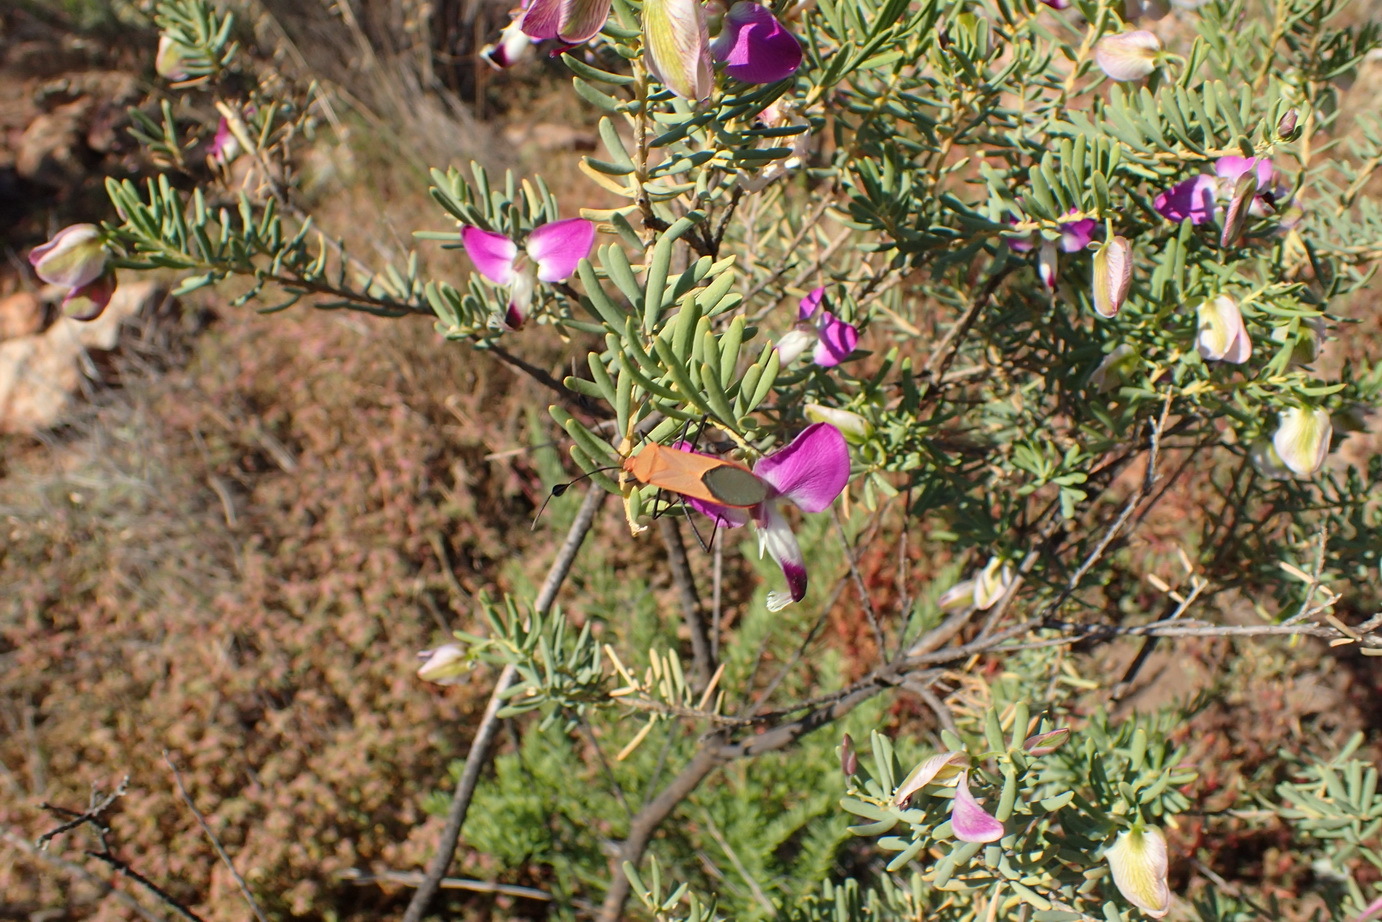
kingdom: Plantae
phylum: Tracheophyta
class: Magnoliopsida
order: Fabales
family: Polygalaceae
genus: Polygala
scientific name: Polygala myrtifolia
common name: Myrtle-leaf milkwort
